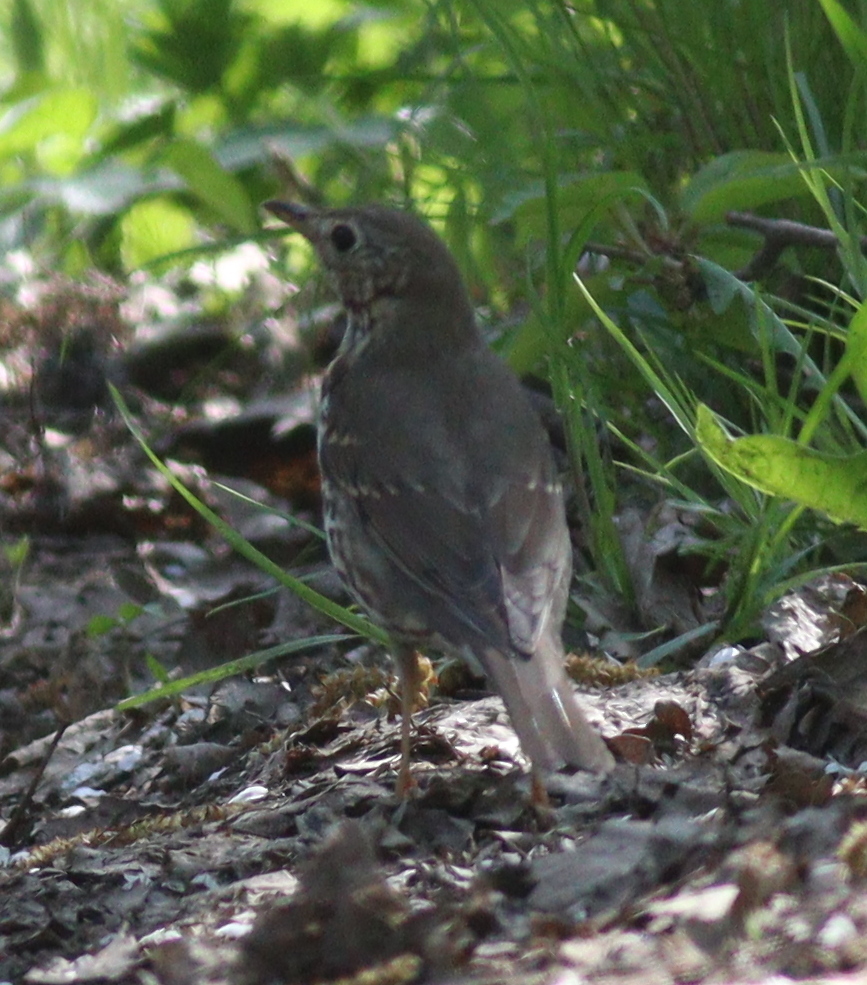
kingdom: Animalia
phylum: Chordata
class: Aves
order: Passeriformes
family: Turdidae
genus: Turdus
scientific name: Turdus philomelos
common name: Song thrush
